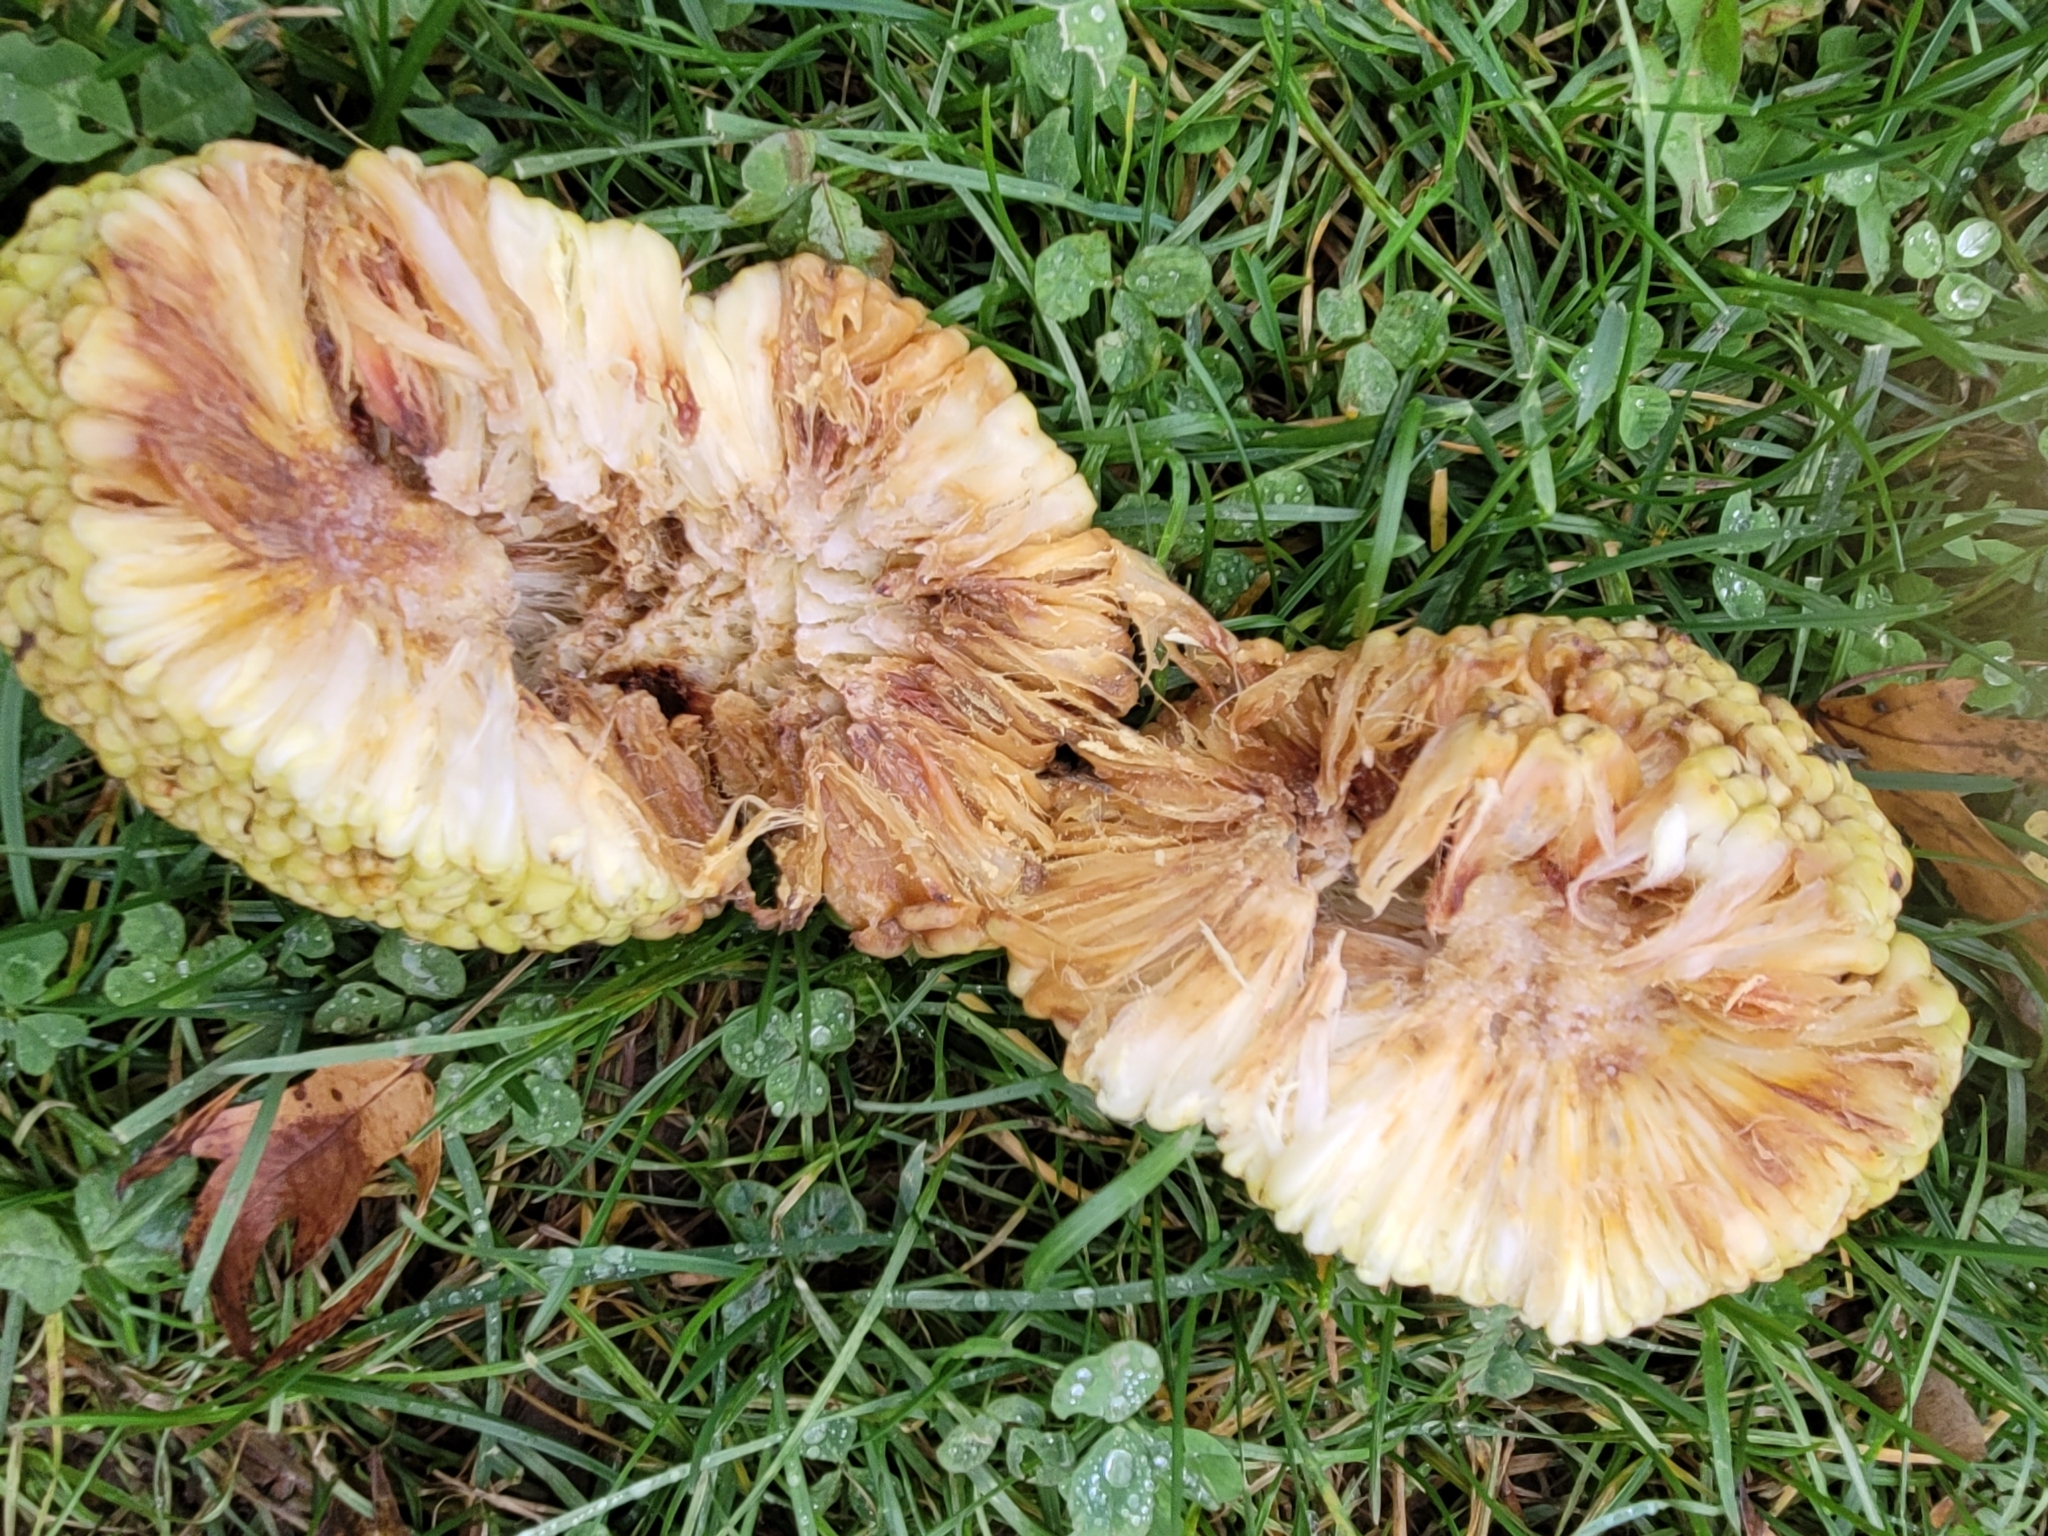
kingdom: Plantae
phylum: Tracheophyta
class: Magnoliopsida
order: Rosales
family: Moraceae
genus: Maclura
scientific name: Maclura pomifera
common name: Osage-orange
